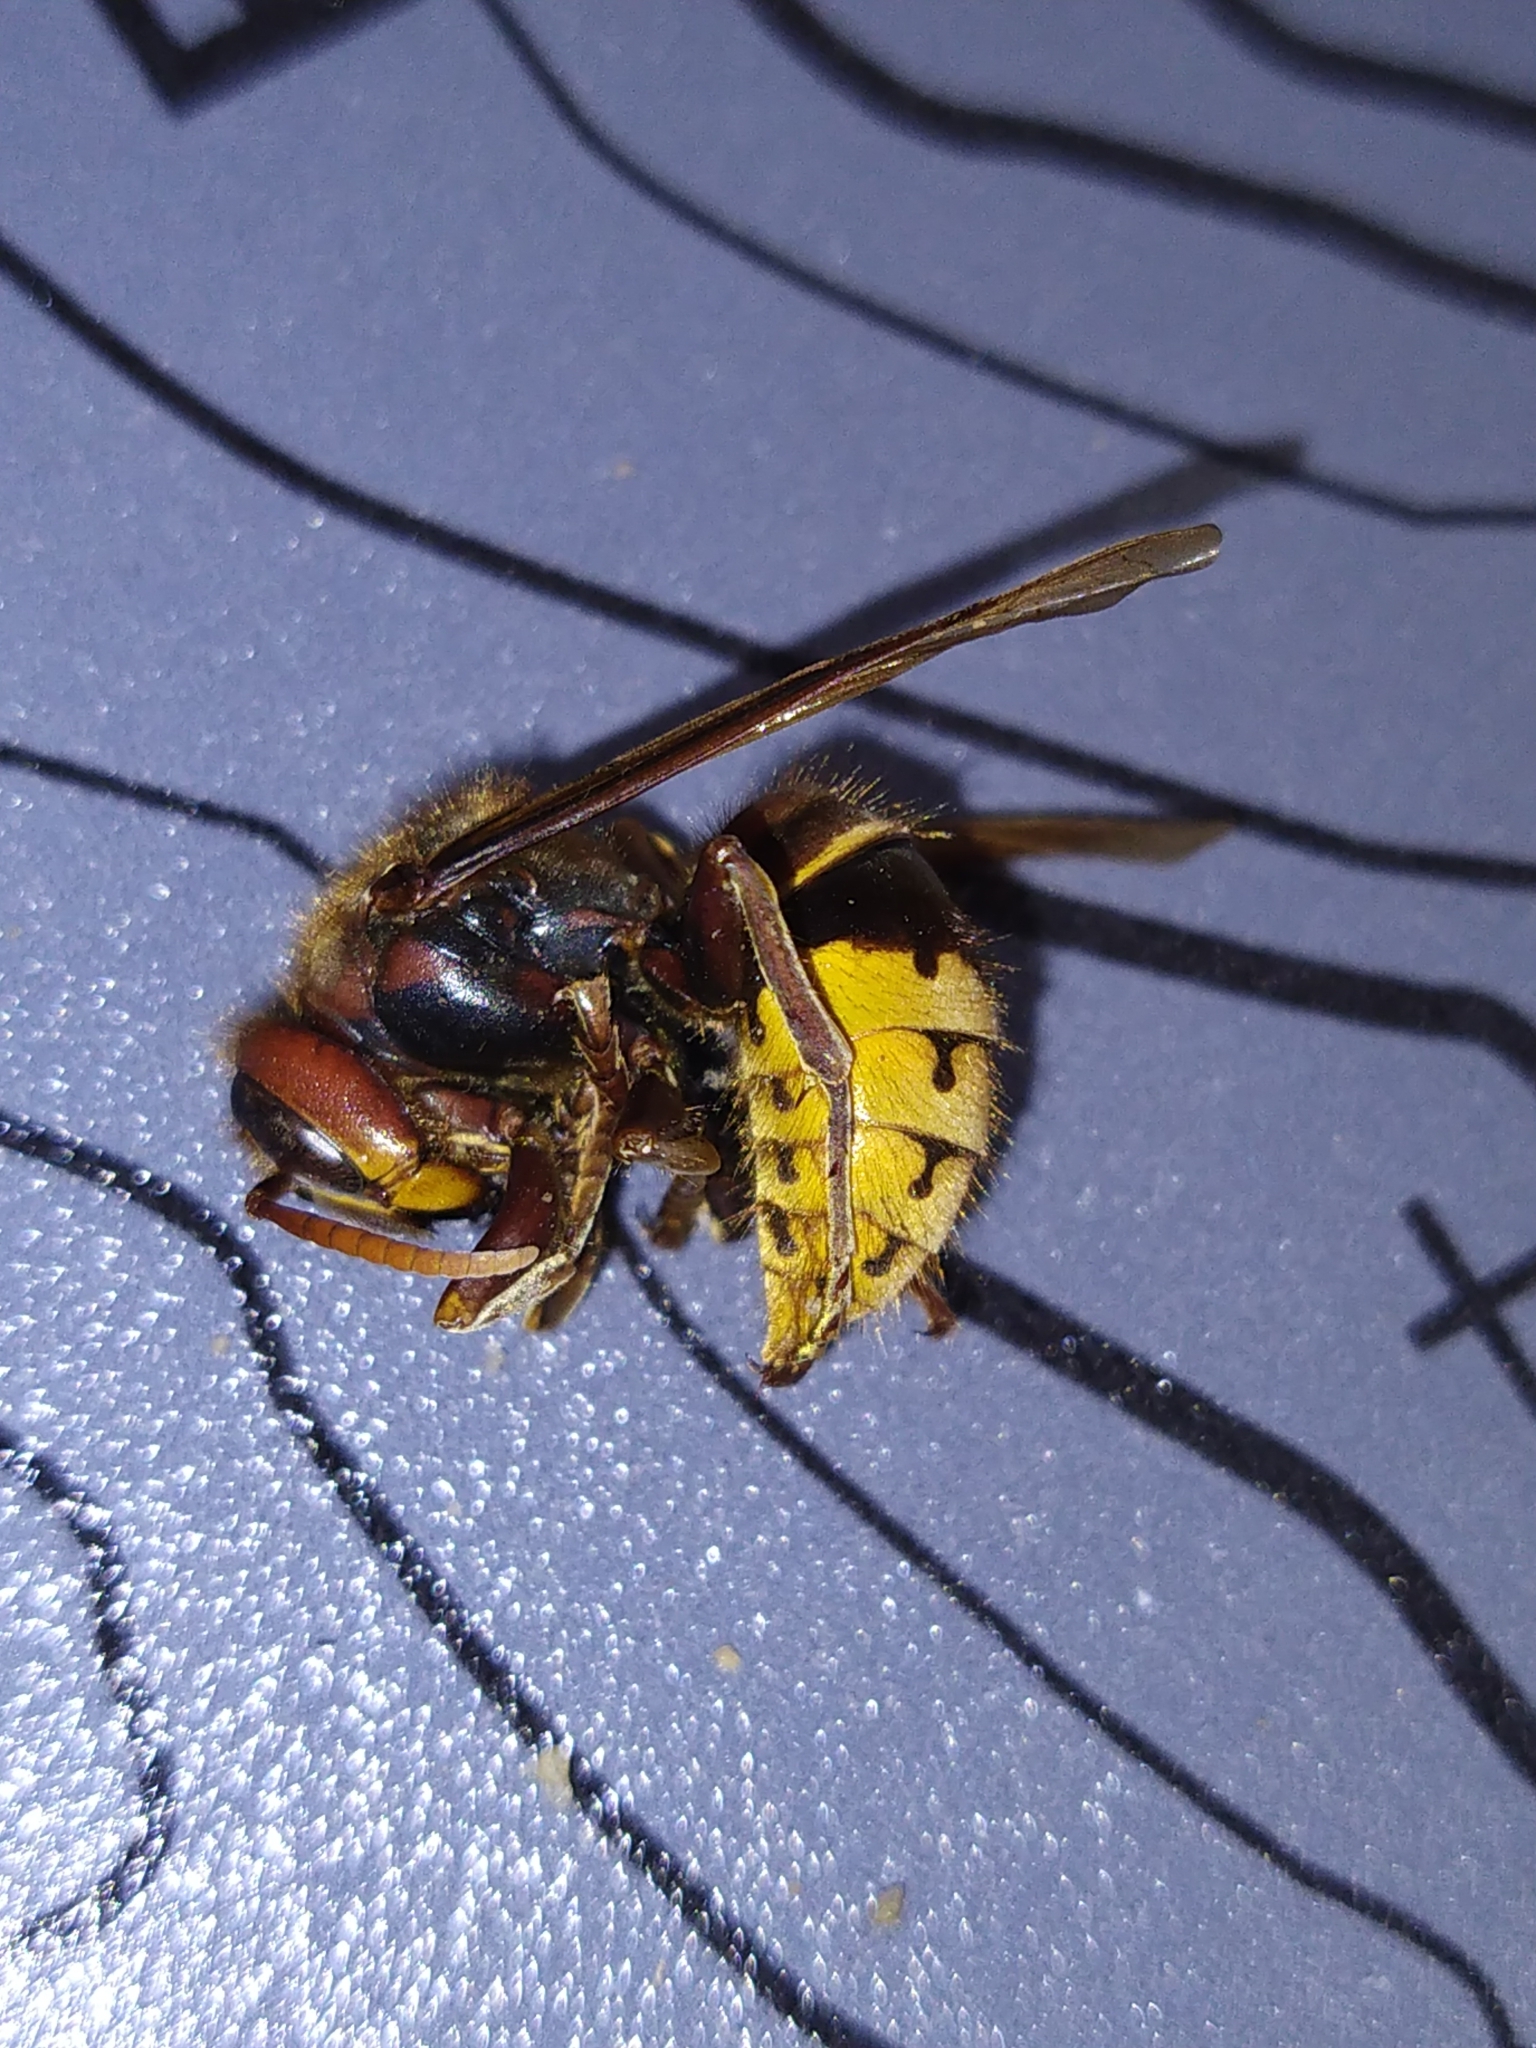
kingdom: Animalia
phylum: Arthropoda
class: Insecta
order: Hymenoptera
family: Vespidae
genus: Vespa
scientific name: Vespa crabro
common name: Hornet
